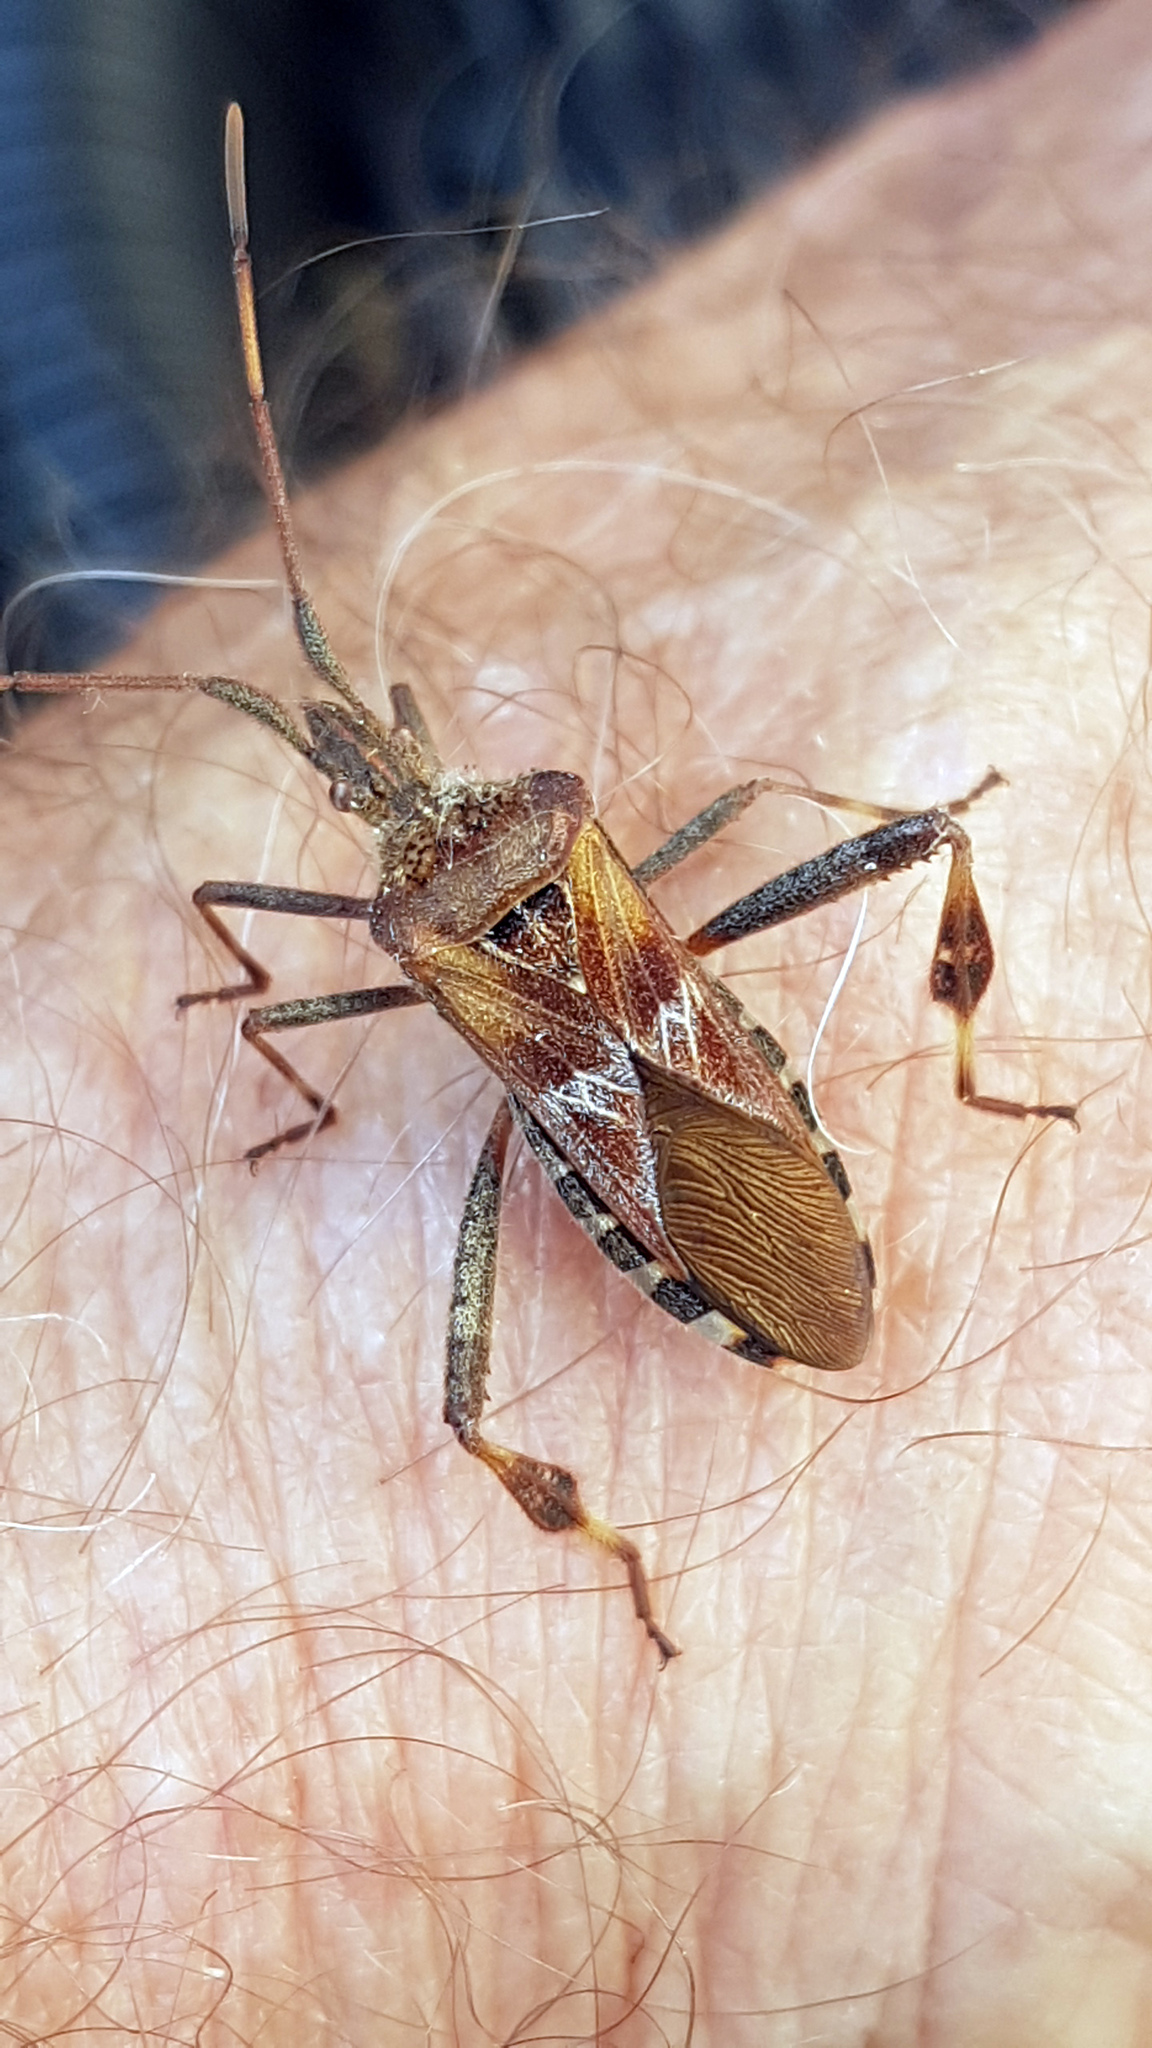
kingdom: Animalia
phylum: Arthropoda
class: Insecta
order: Hemiptera
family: Coreidae
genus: Leptoglossus
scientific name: Leptoglossus occidentalis
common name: Western conifer-seed bug
